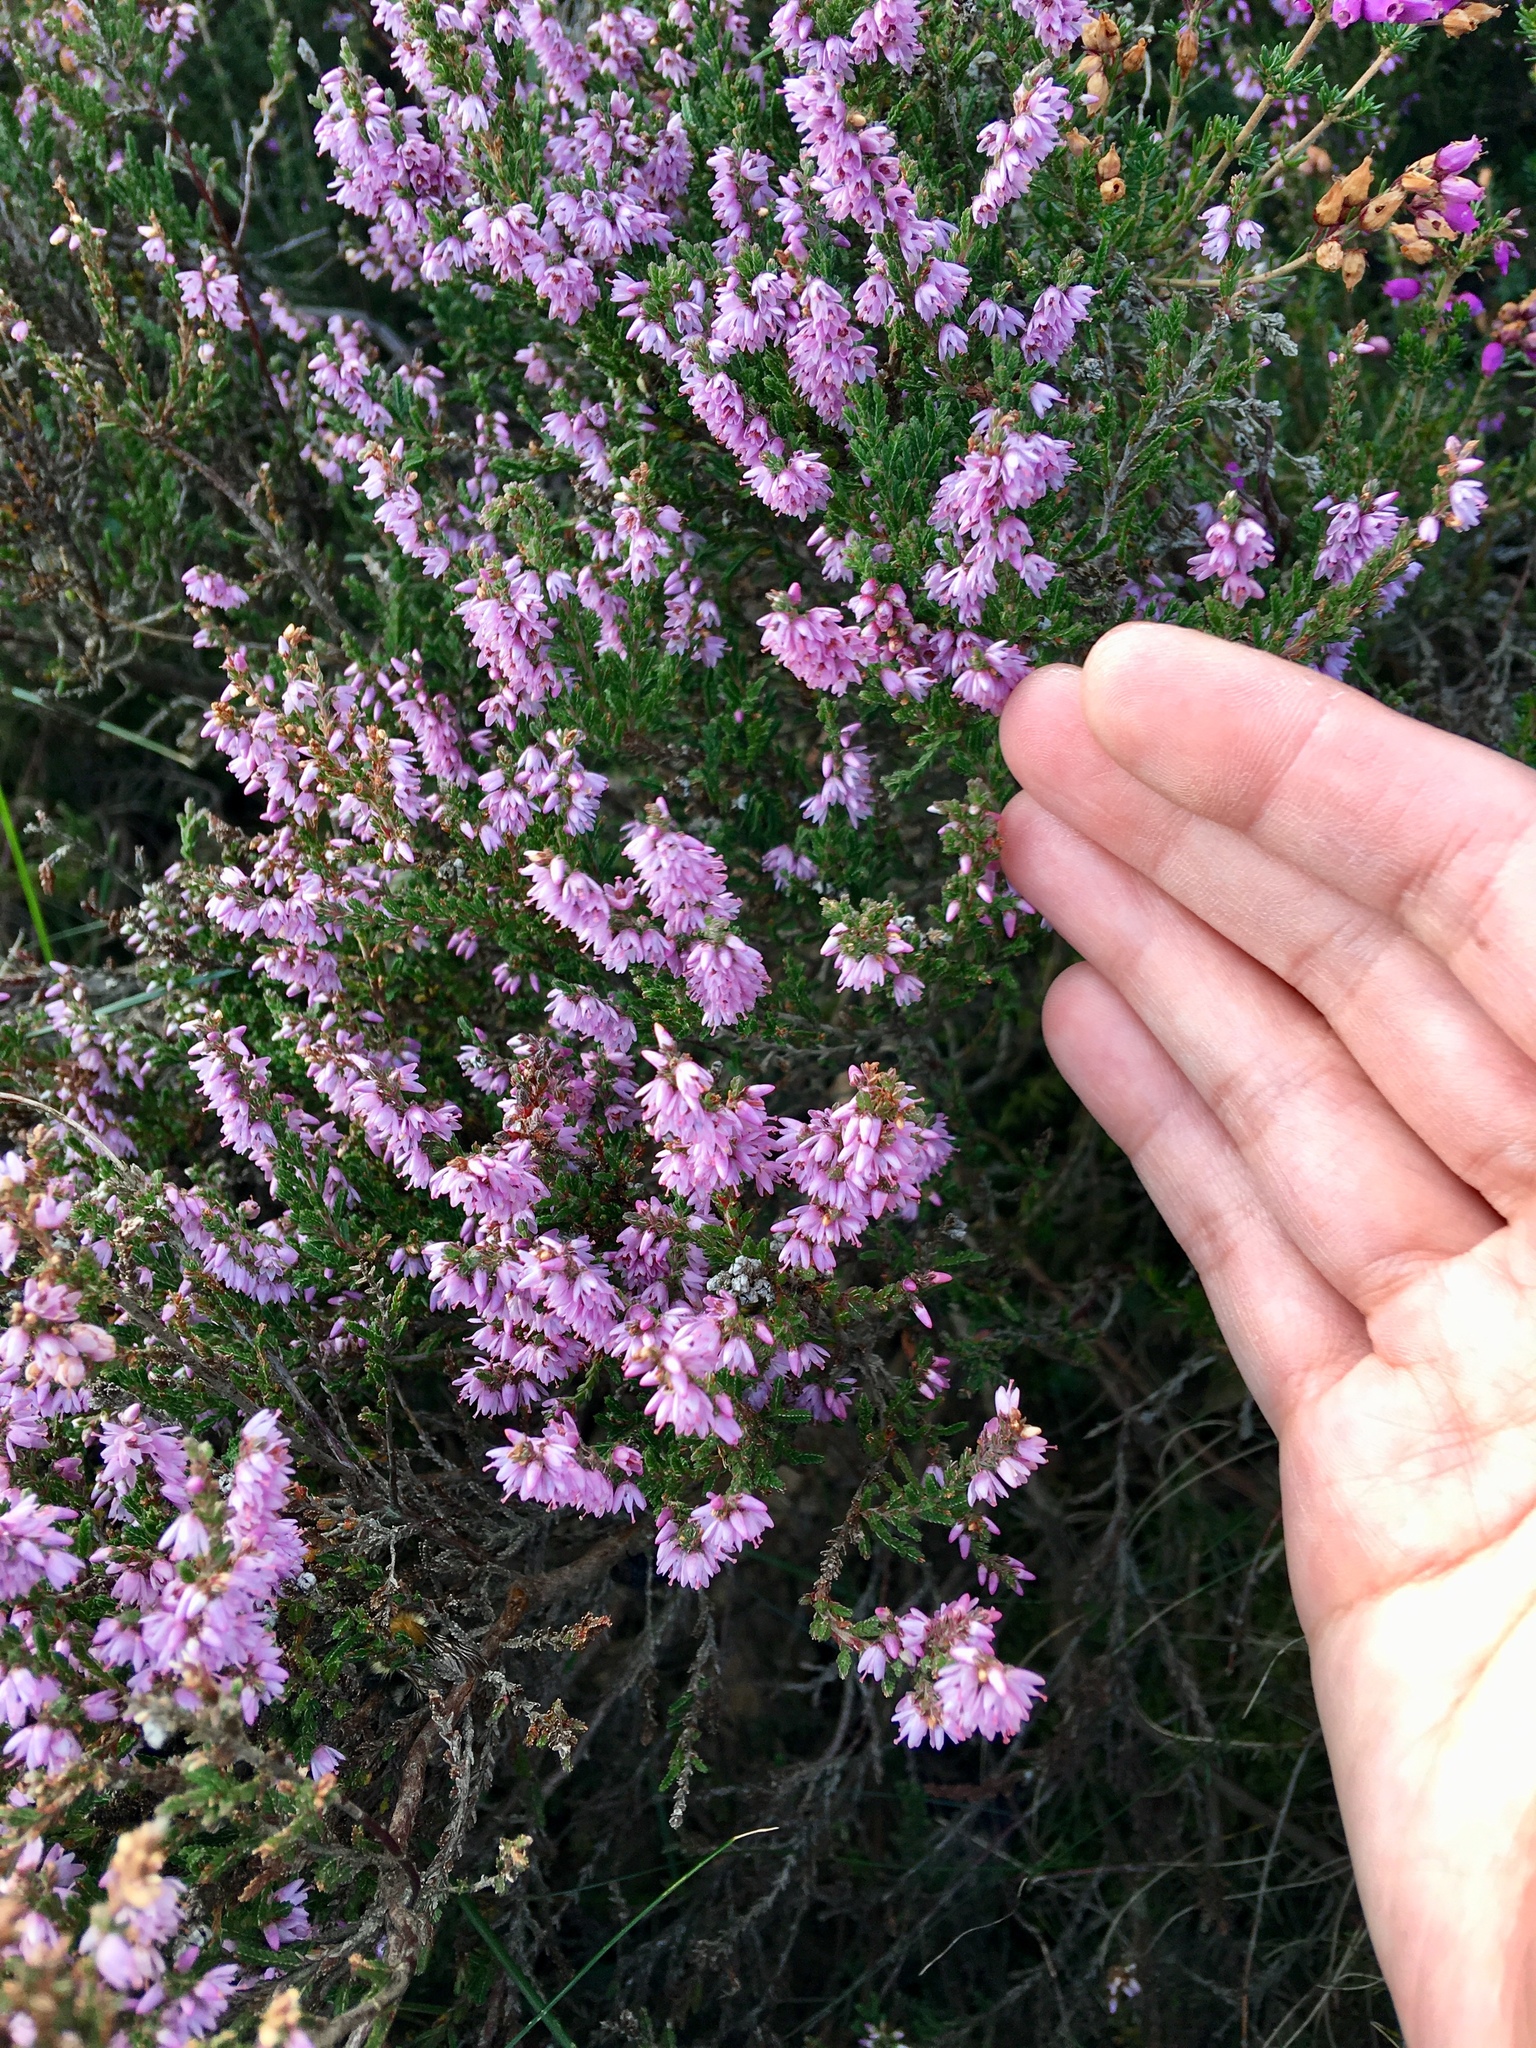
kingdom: Plantae
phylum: Tracheophyta
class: Magnoliopsida
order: Ericales
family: Ericaceae
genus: Calluna
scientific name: Calluna vulgaris
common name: Heather
